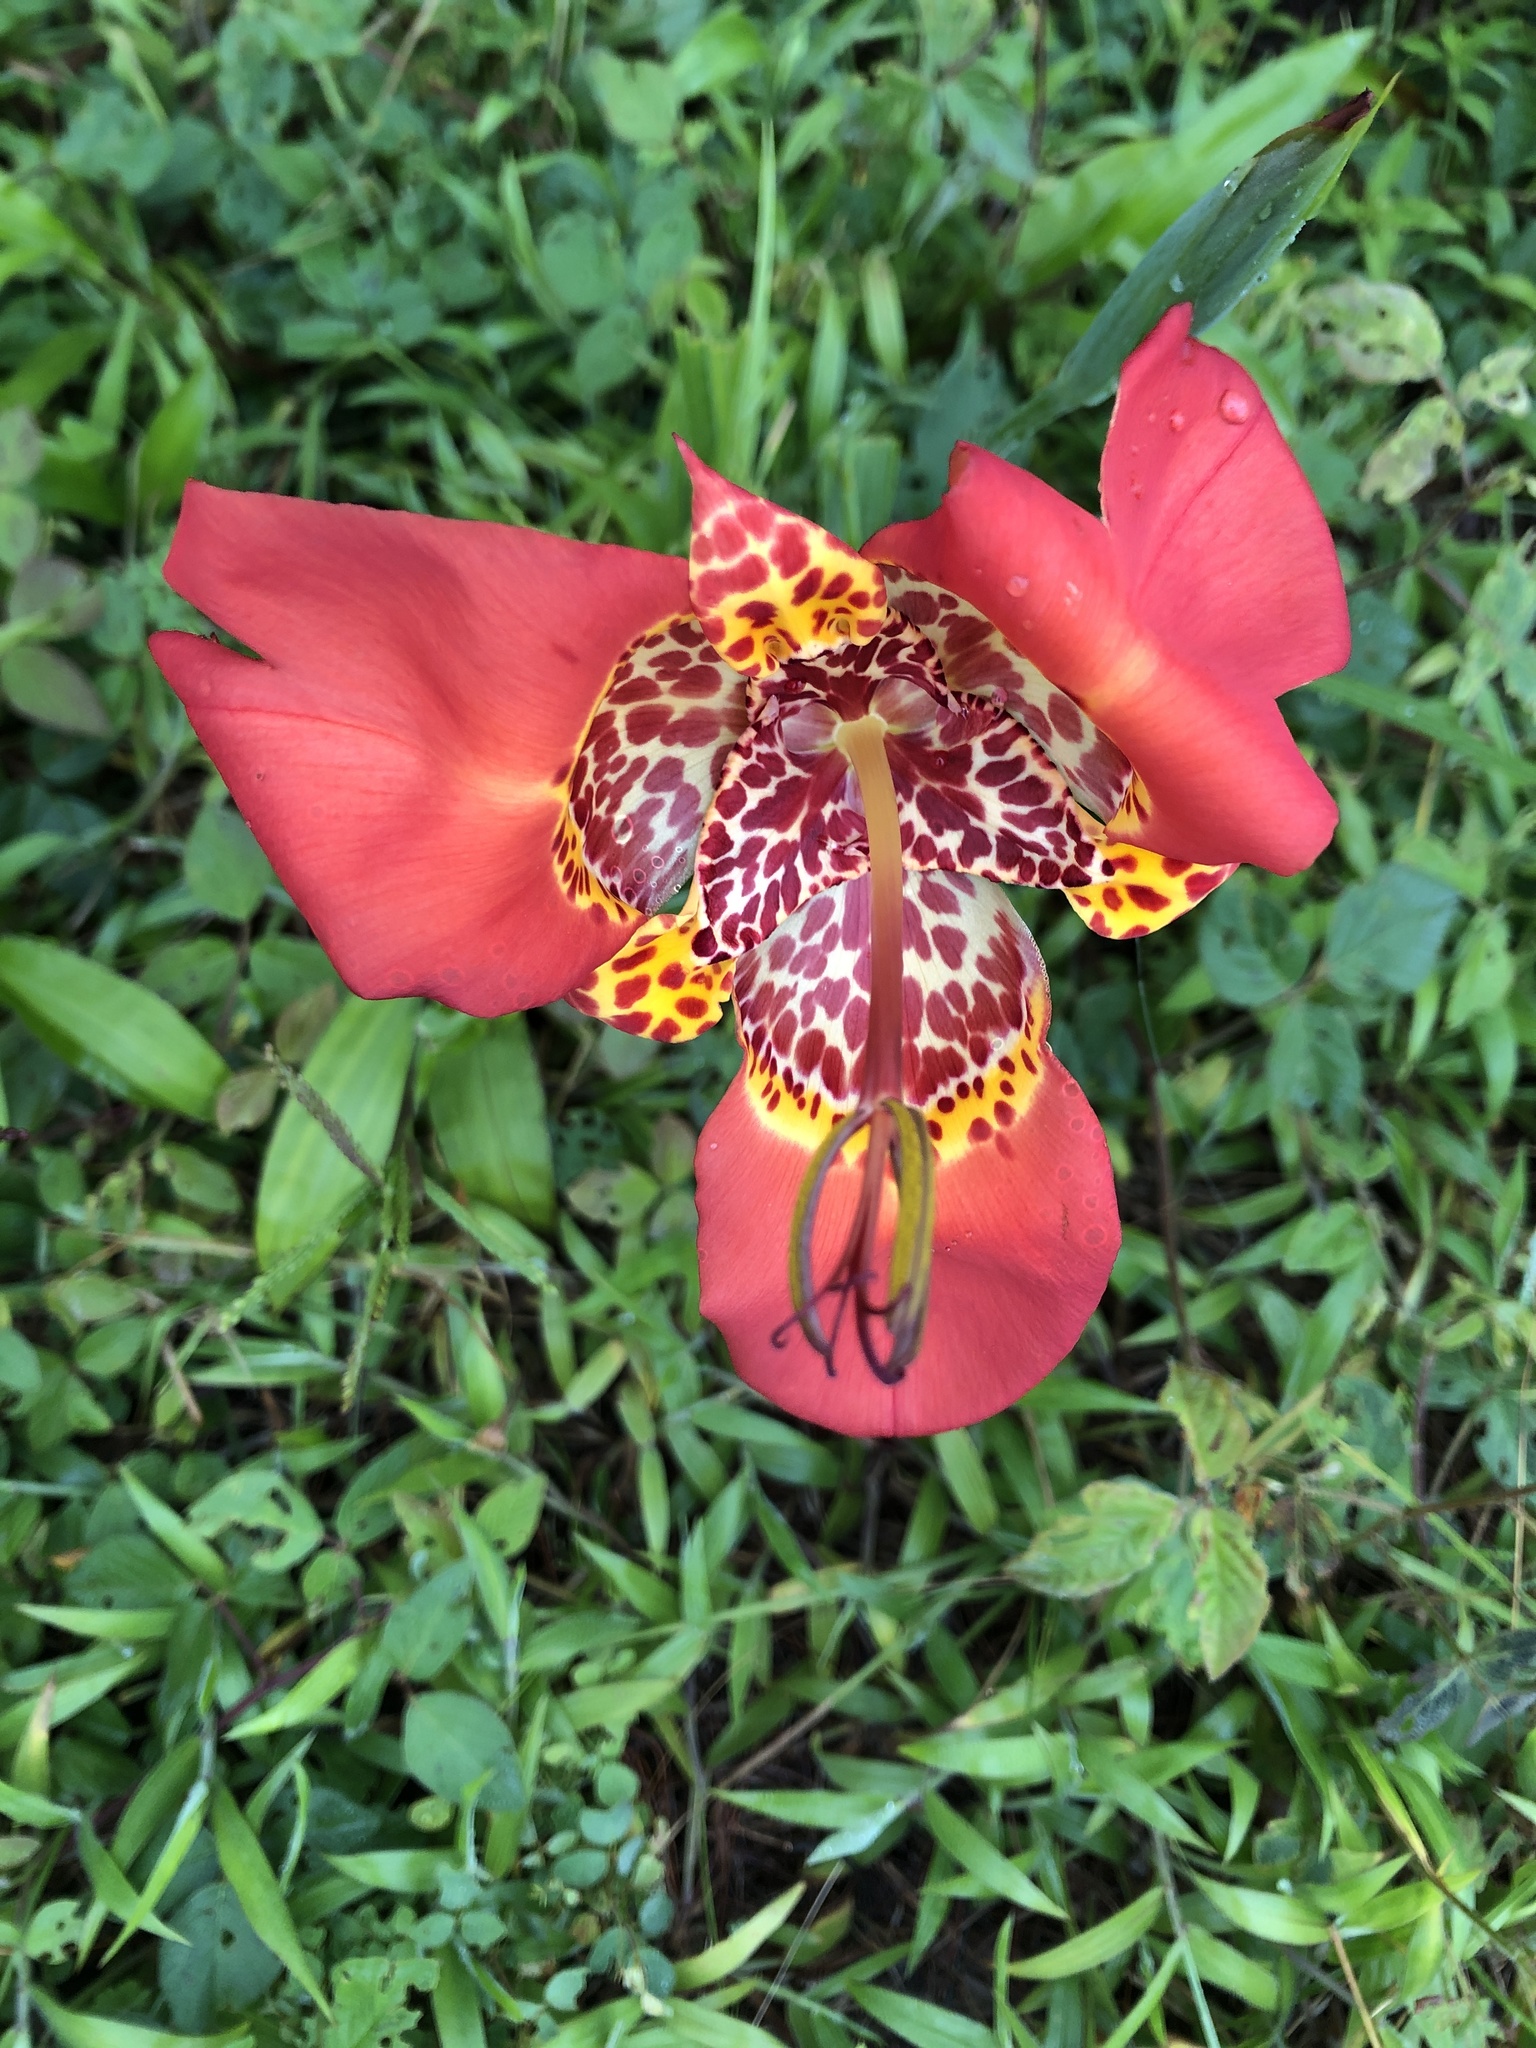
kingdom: Plantae
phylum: Tracheophyta
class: Liliopsida
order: Asparagales
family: Iridaceae
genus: Tigridia
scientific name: Tigridia pavonia
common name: Peacock-flower
